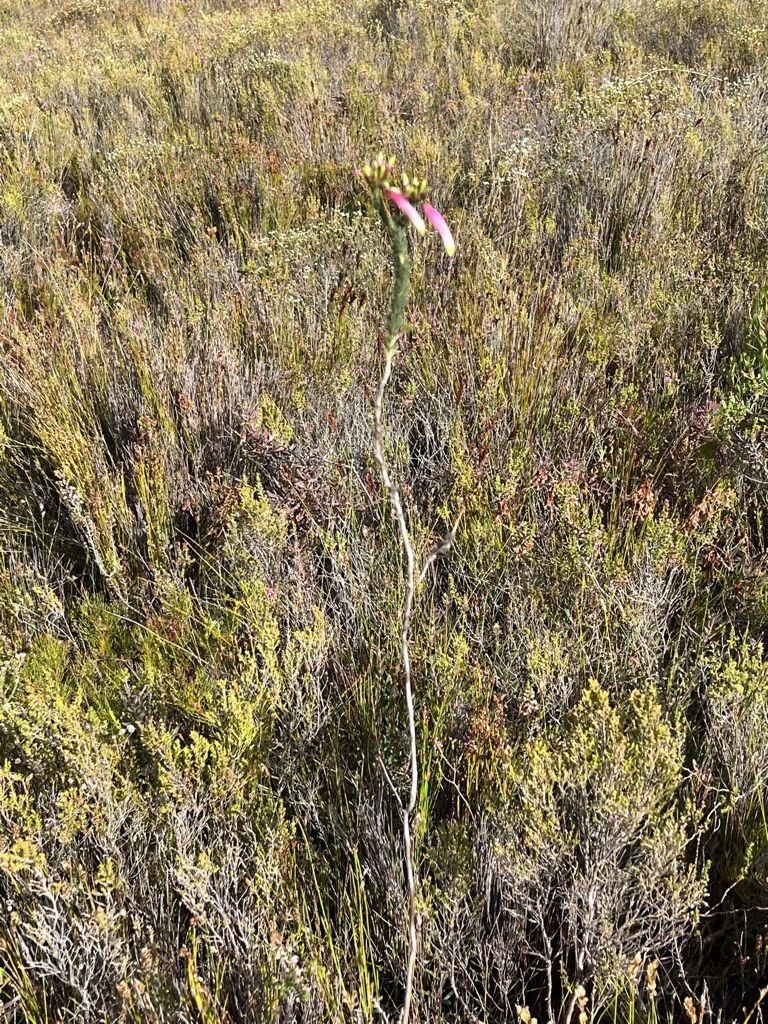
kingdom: Plantae
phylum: Tracheophyta
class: Magnoliopsida
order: Ericales
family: Ericaceae
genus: Erica
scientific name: Erica fascicularis
